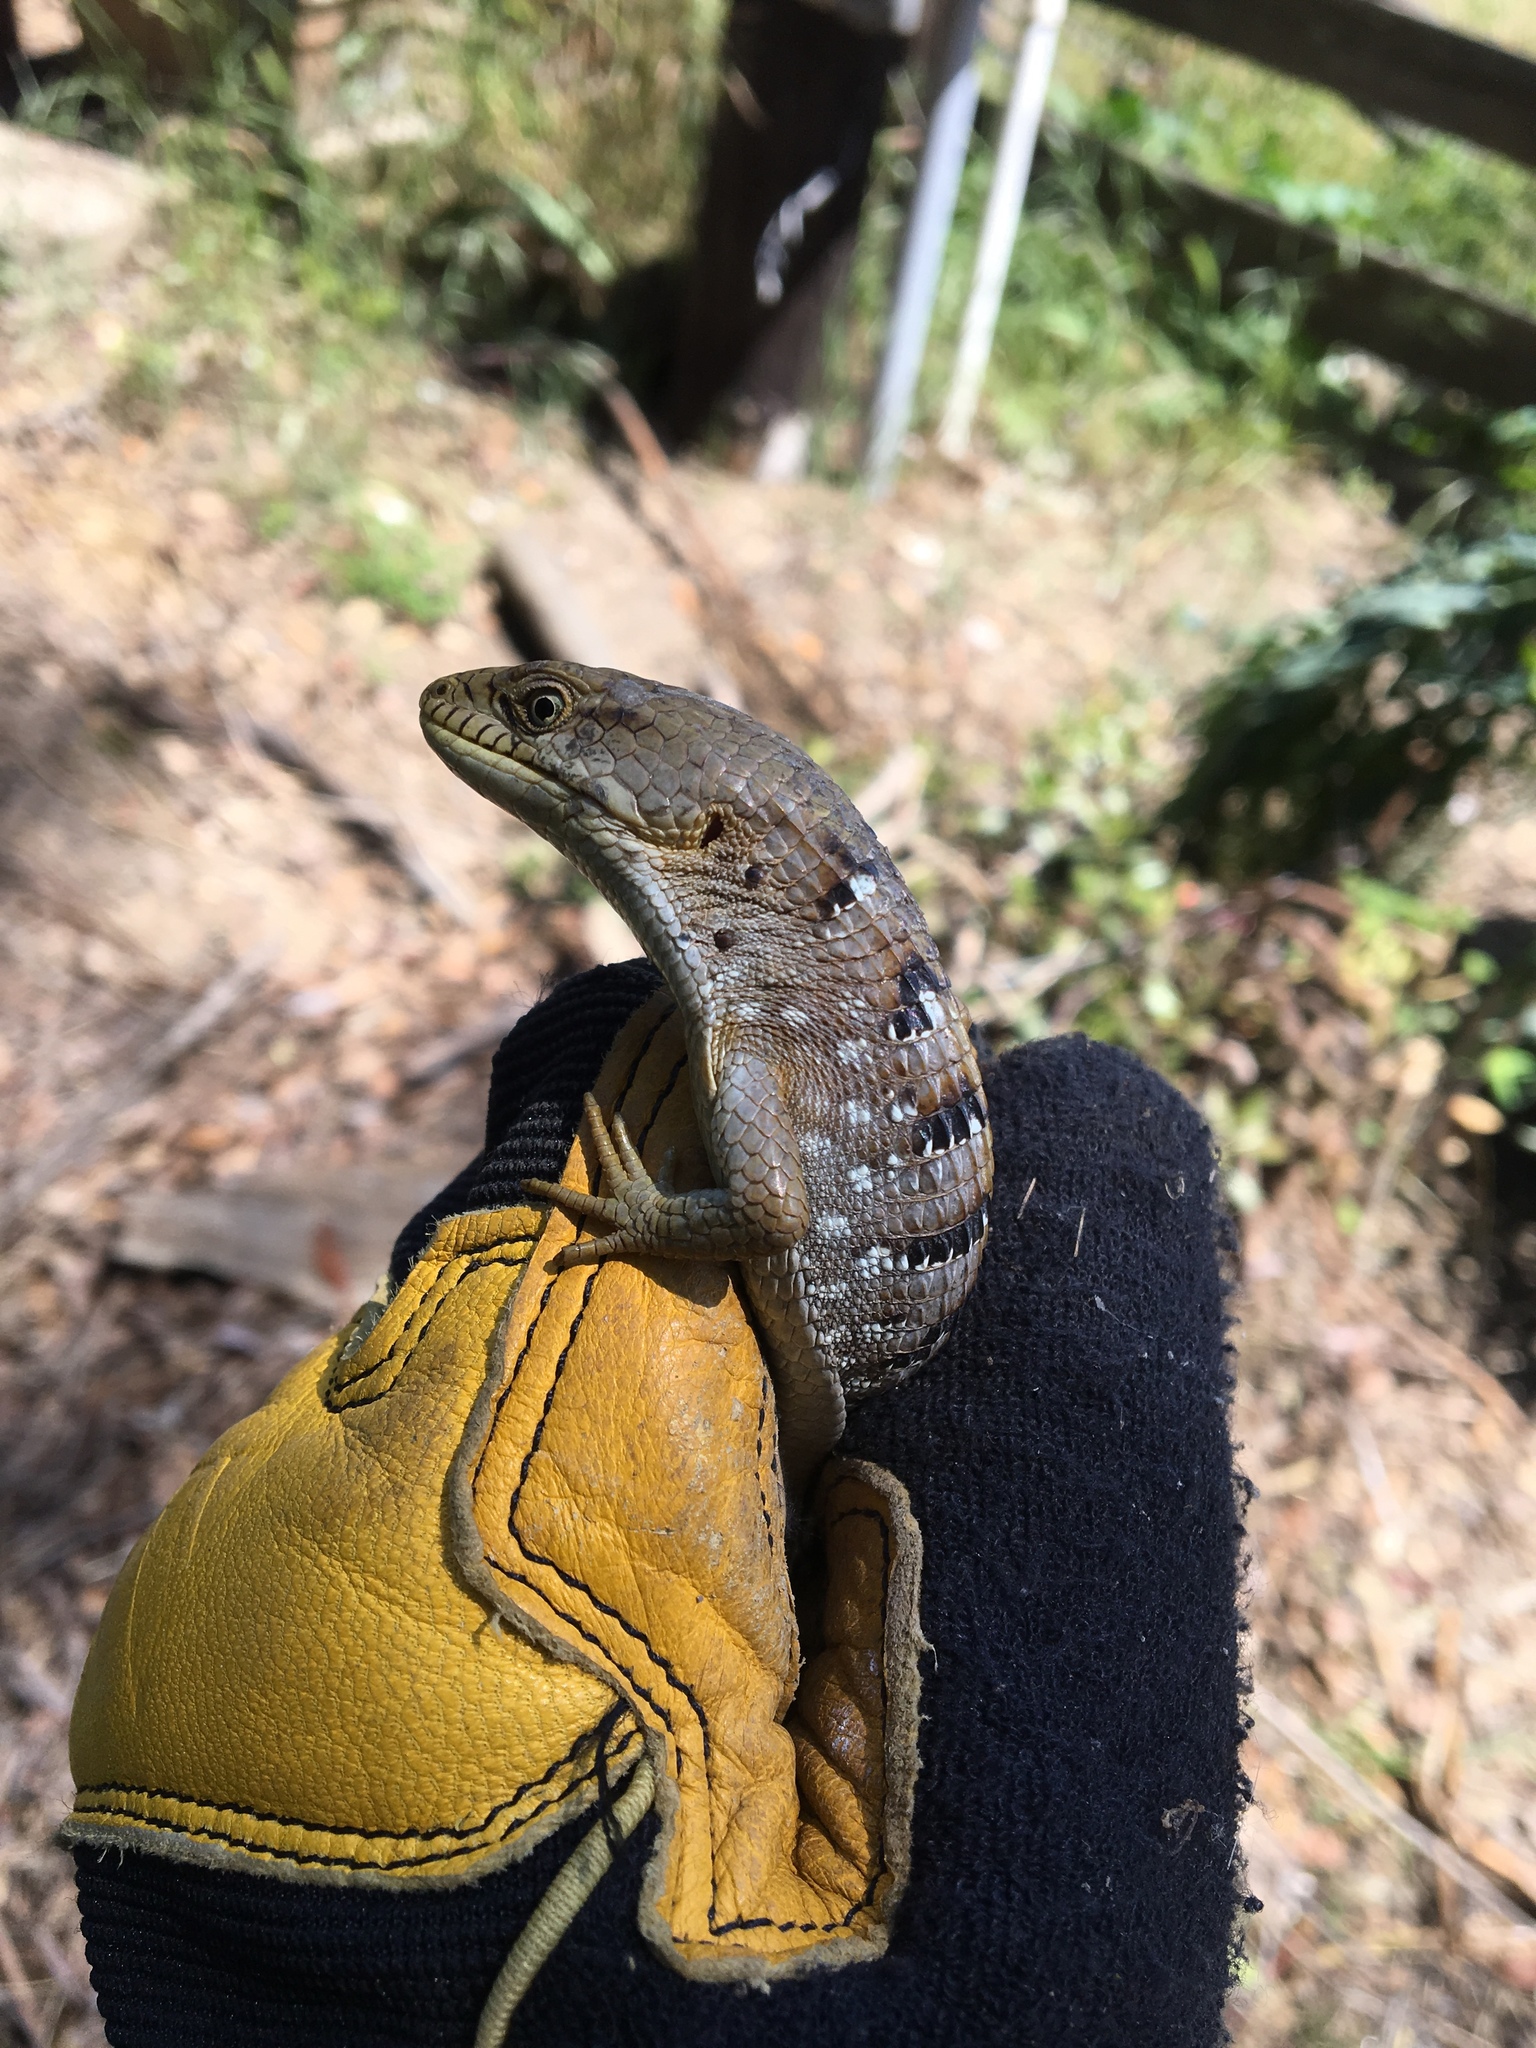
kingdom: Animalia
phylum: Chordata
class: Squamata
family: Anguidae
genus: Elgaria
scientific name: Elgaria multicarinata
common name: Southern alligator lizard
